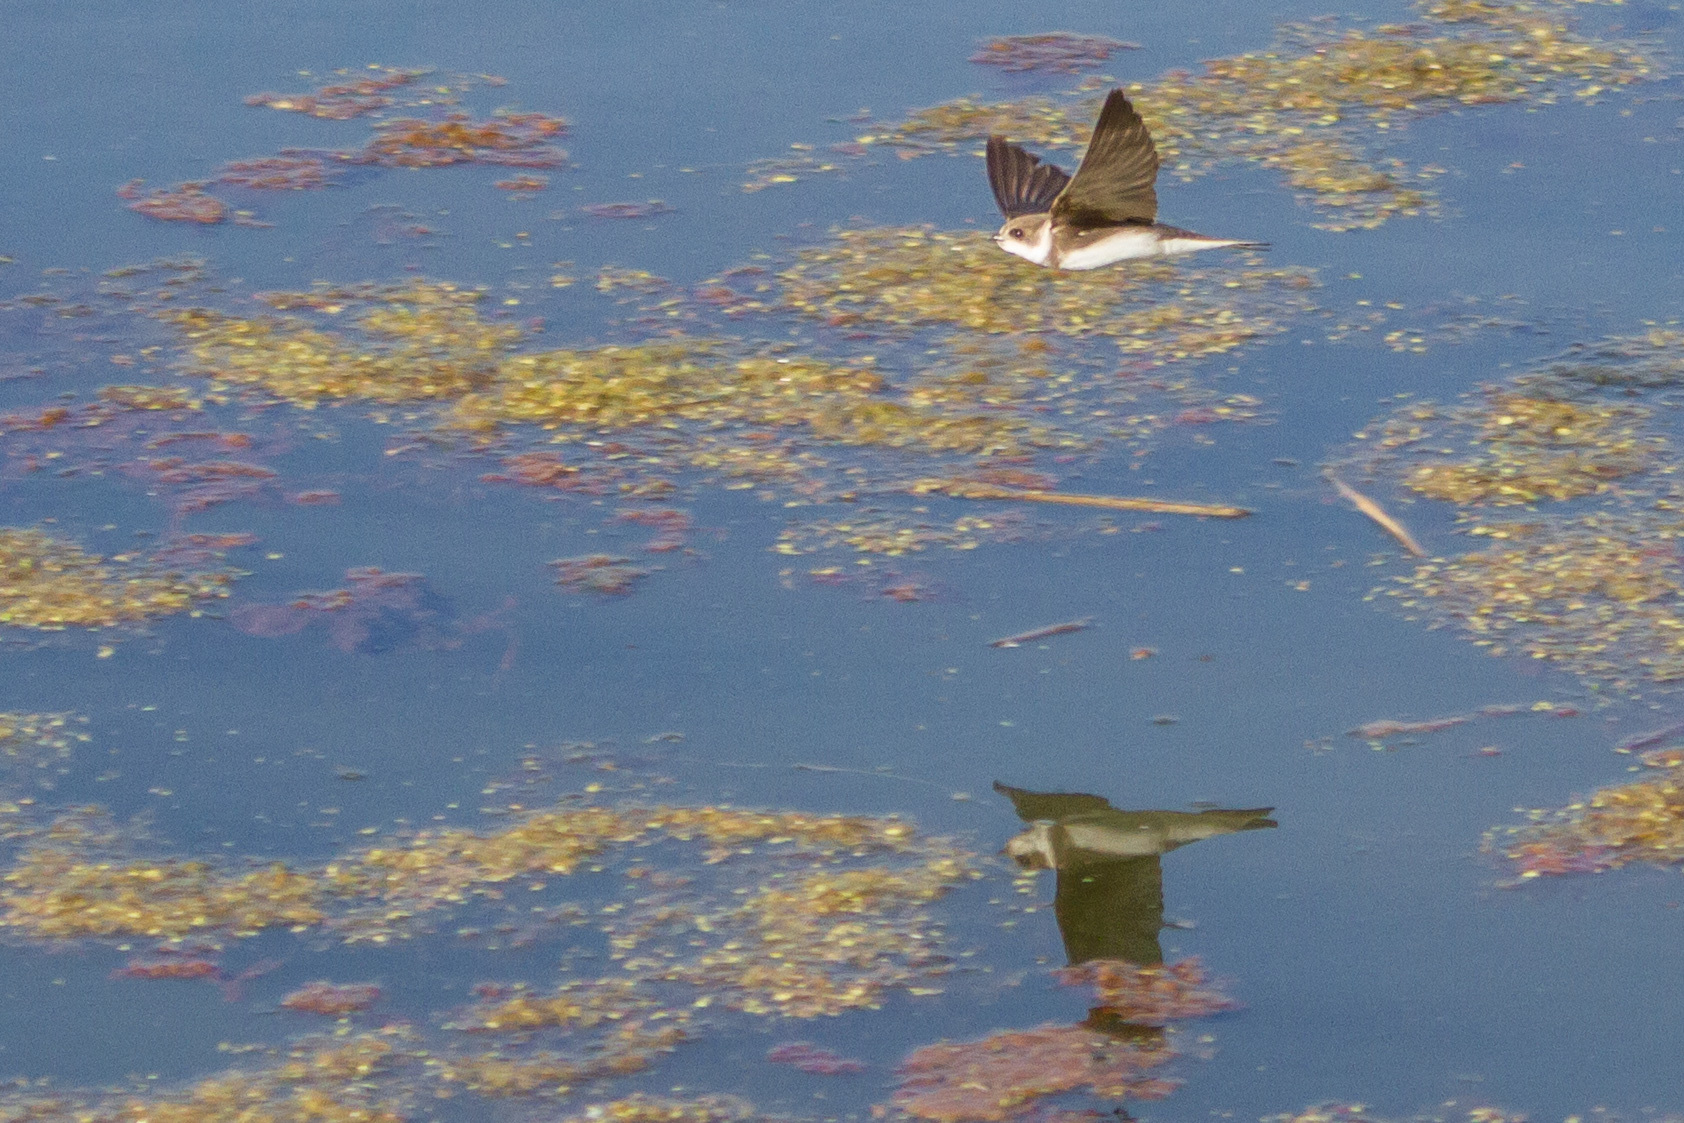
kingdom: Animalia
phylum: Chordata
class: Aves
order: Passeriformes
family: Hirundinidae
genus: Riparia
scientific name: Riparia riparia
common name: Sand martin
